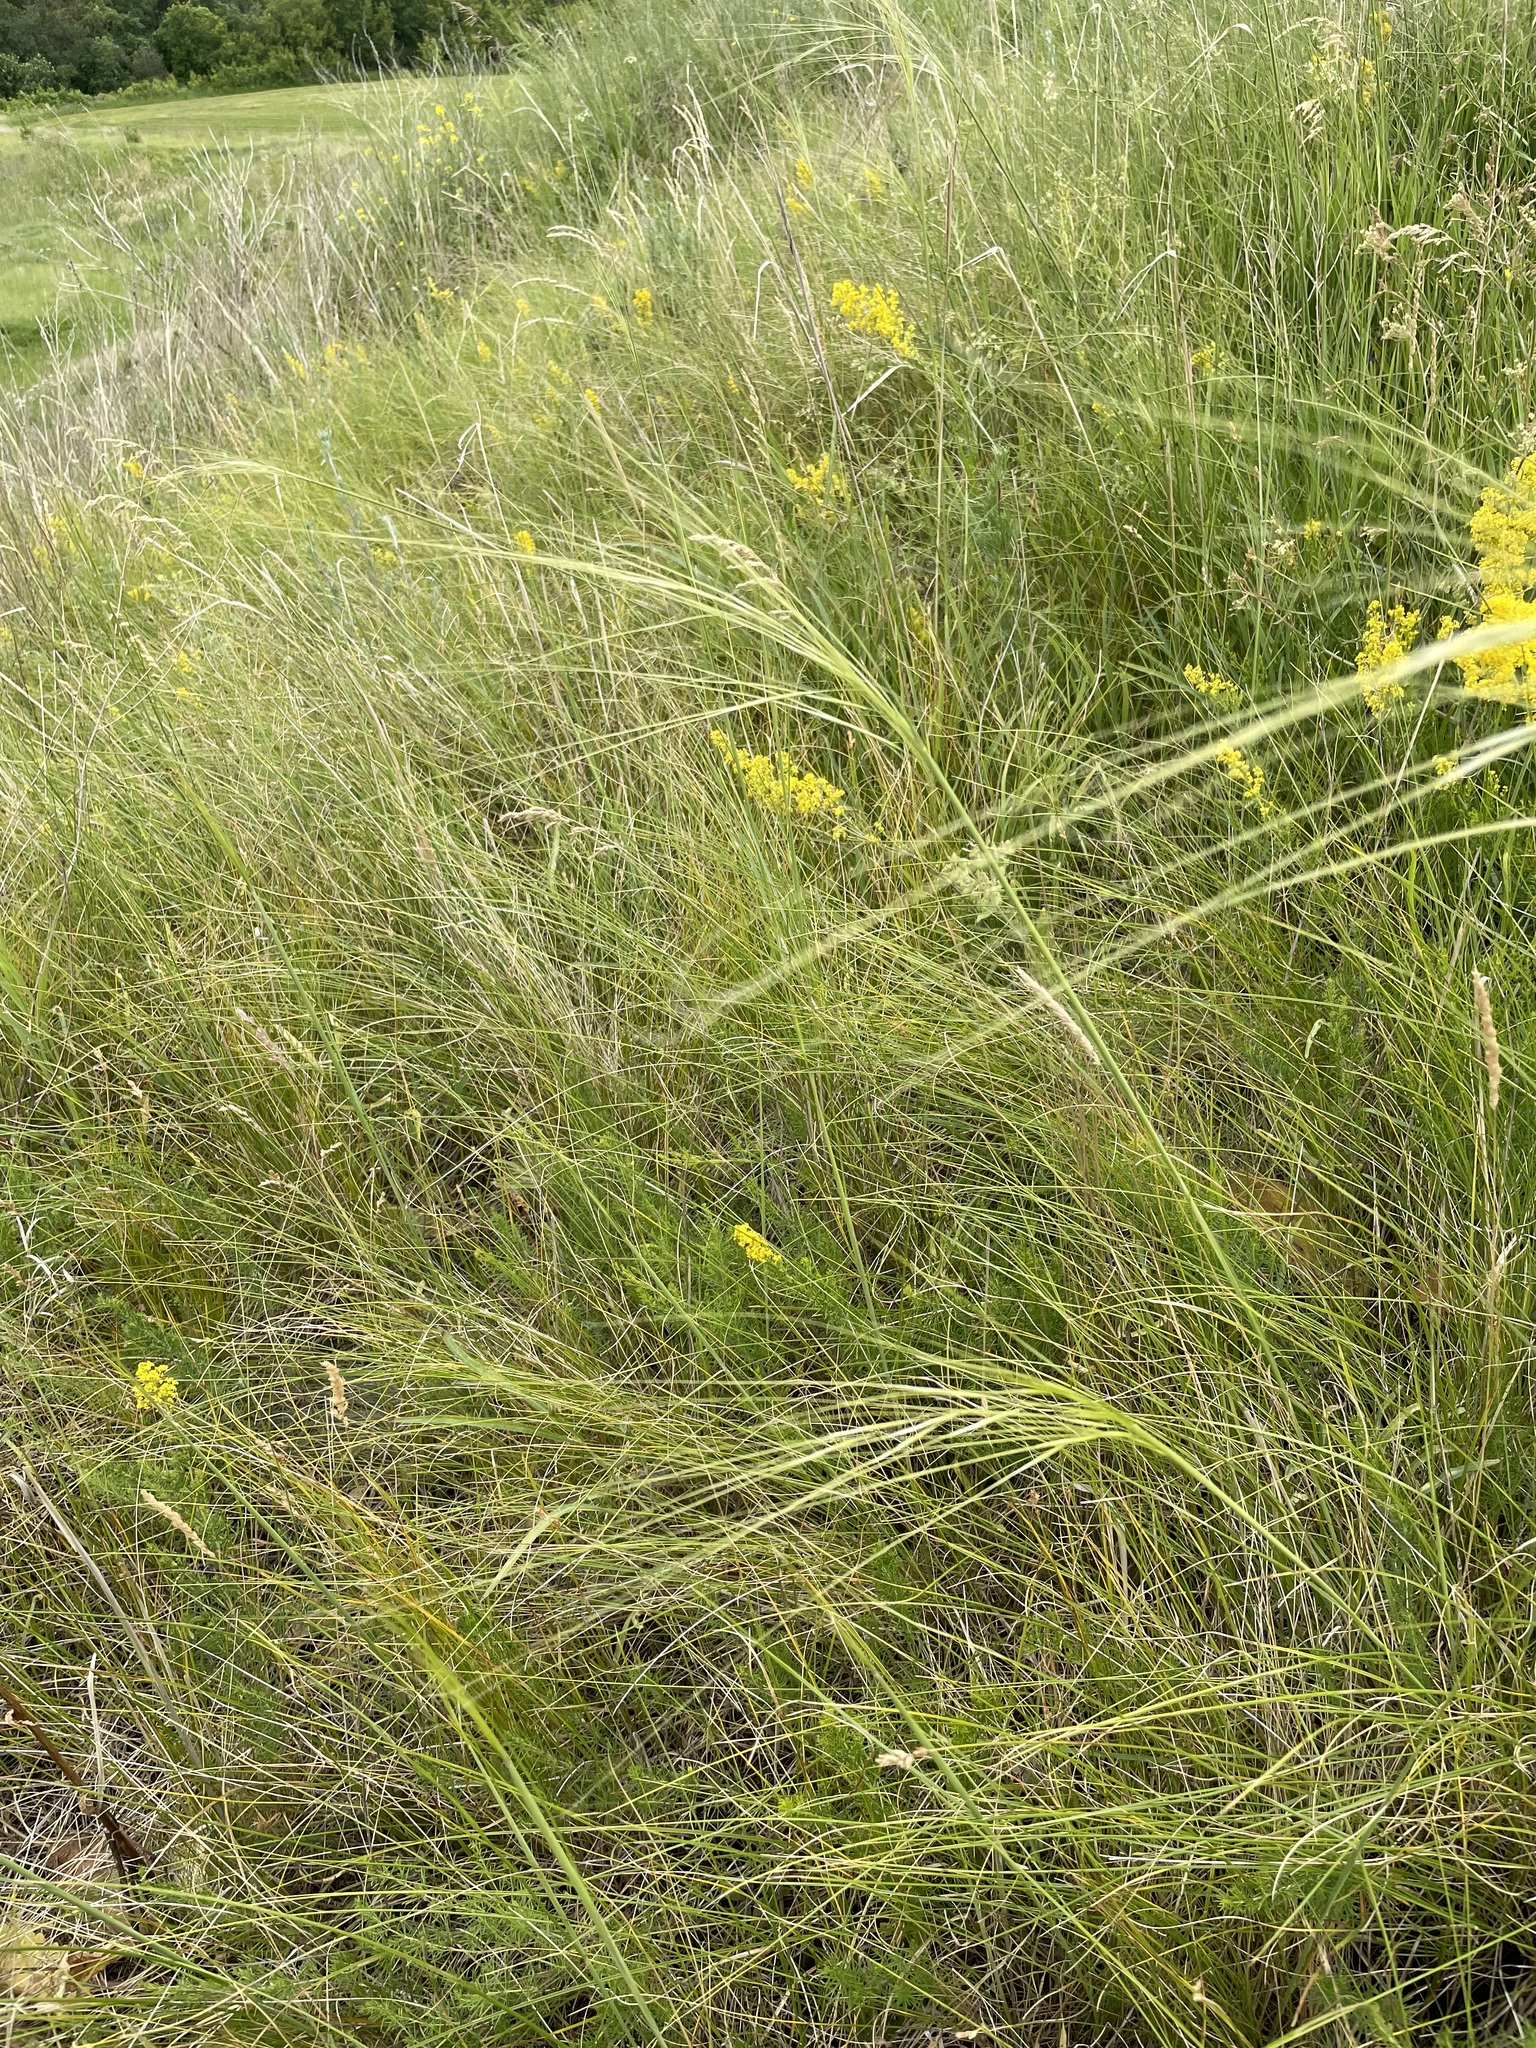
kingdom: Plantae
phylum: Tracheophyta
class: Liliopsida
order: Poales
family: Poaceae
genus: Stipa
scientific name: Stipa capillata
